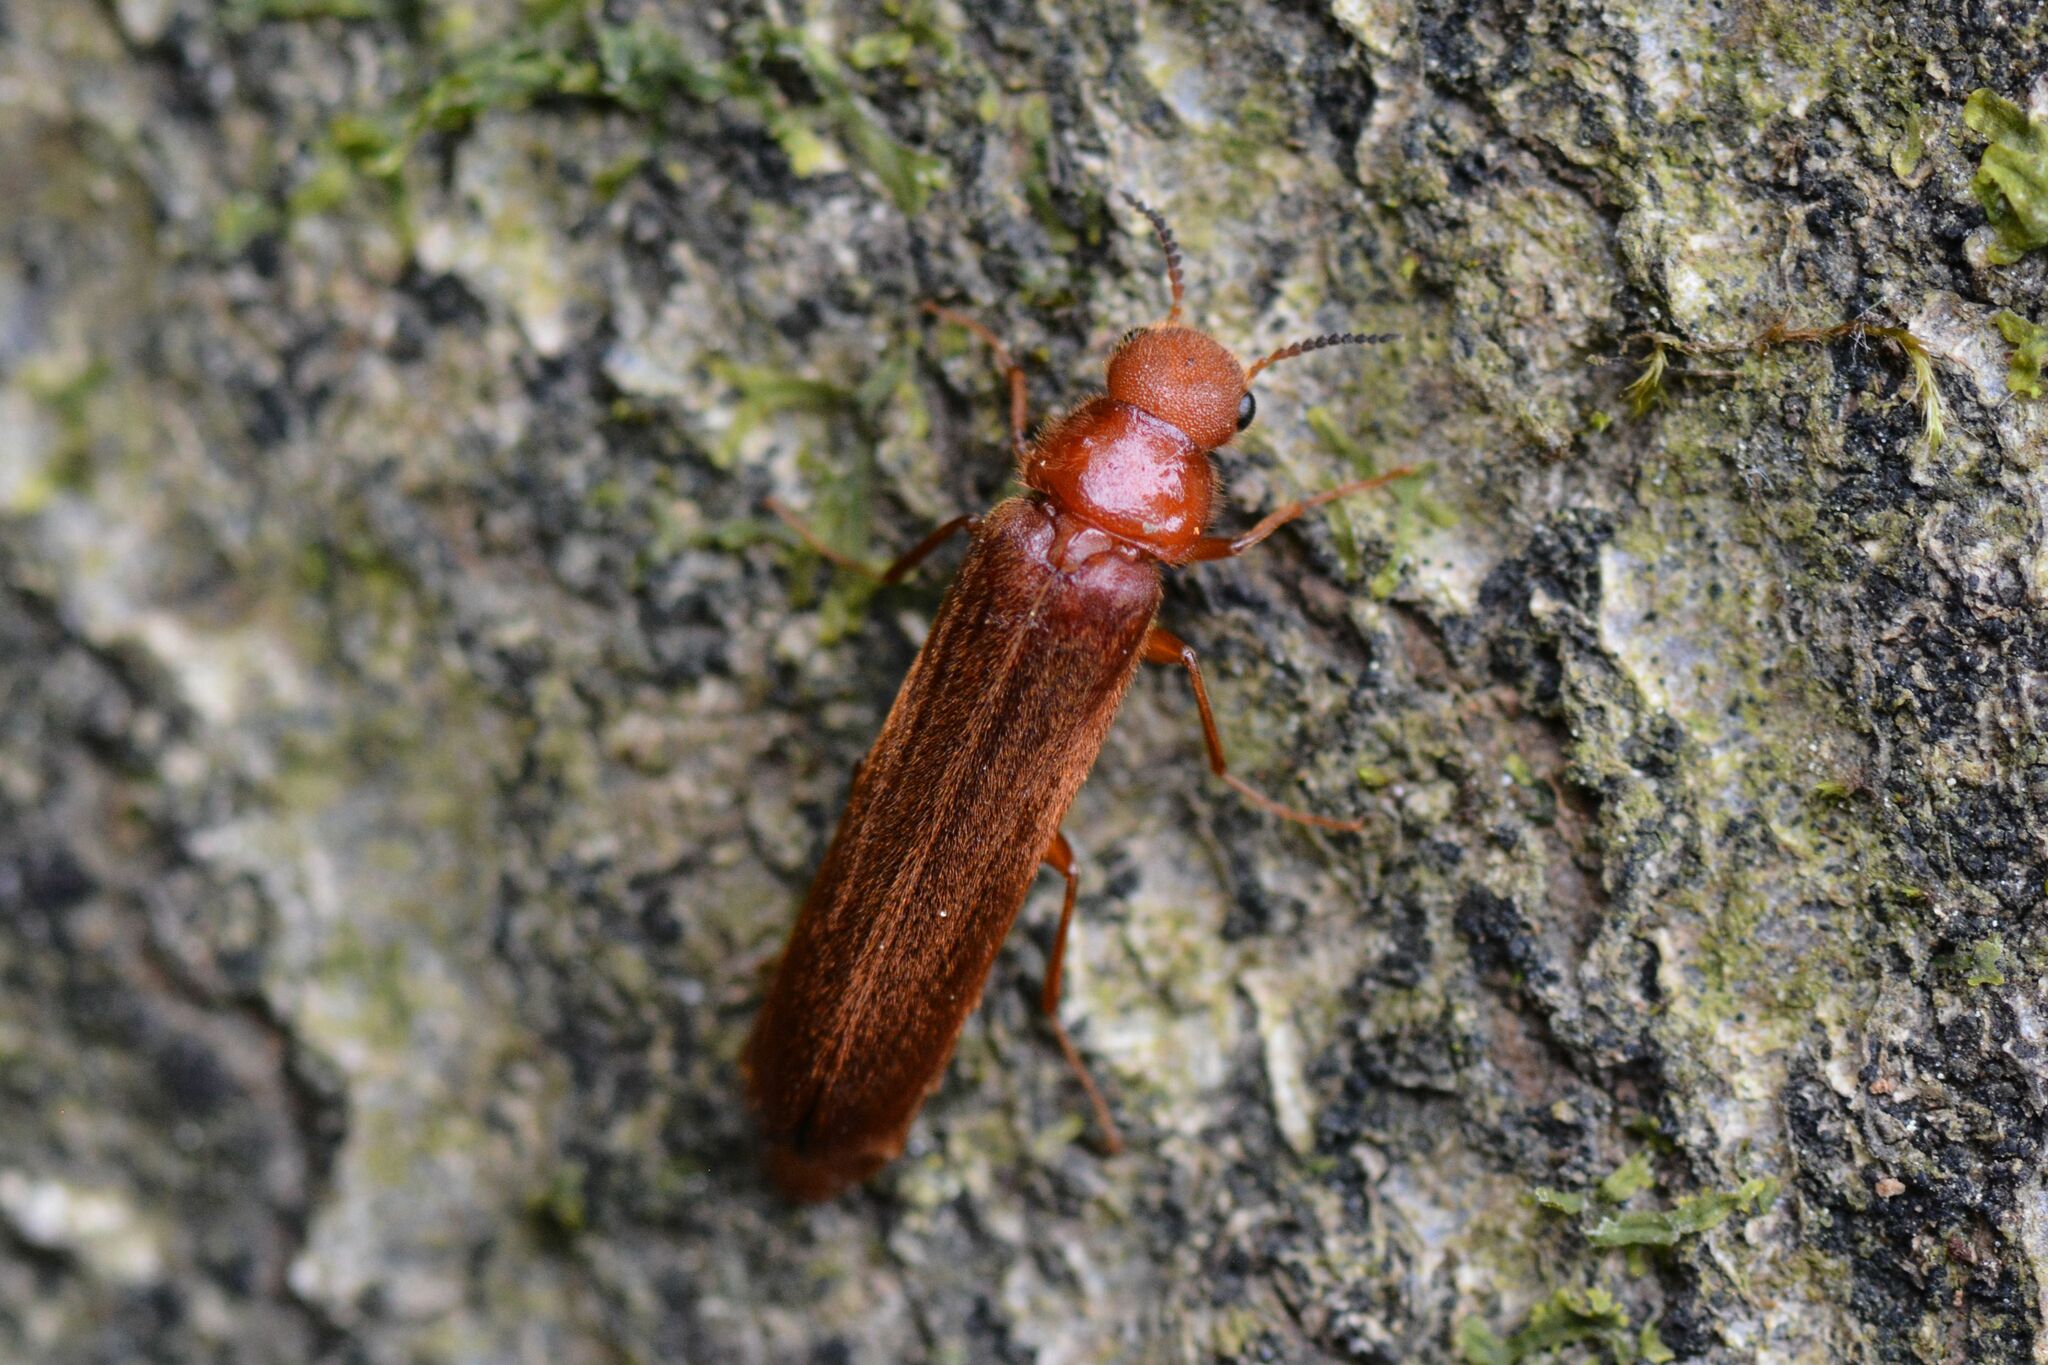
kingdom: Animalia
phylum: Arthropoda
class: Insecta
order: Coleoptera
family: Lymexylidae
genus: Hylecoetus
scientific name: Hylecoetus dermestoides
